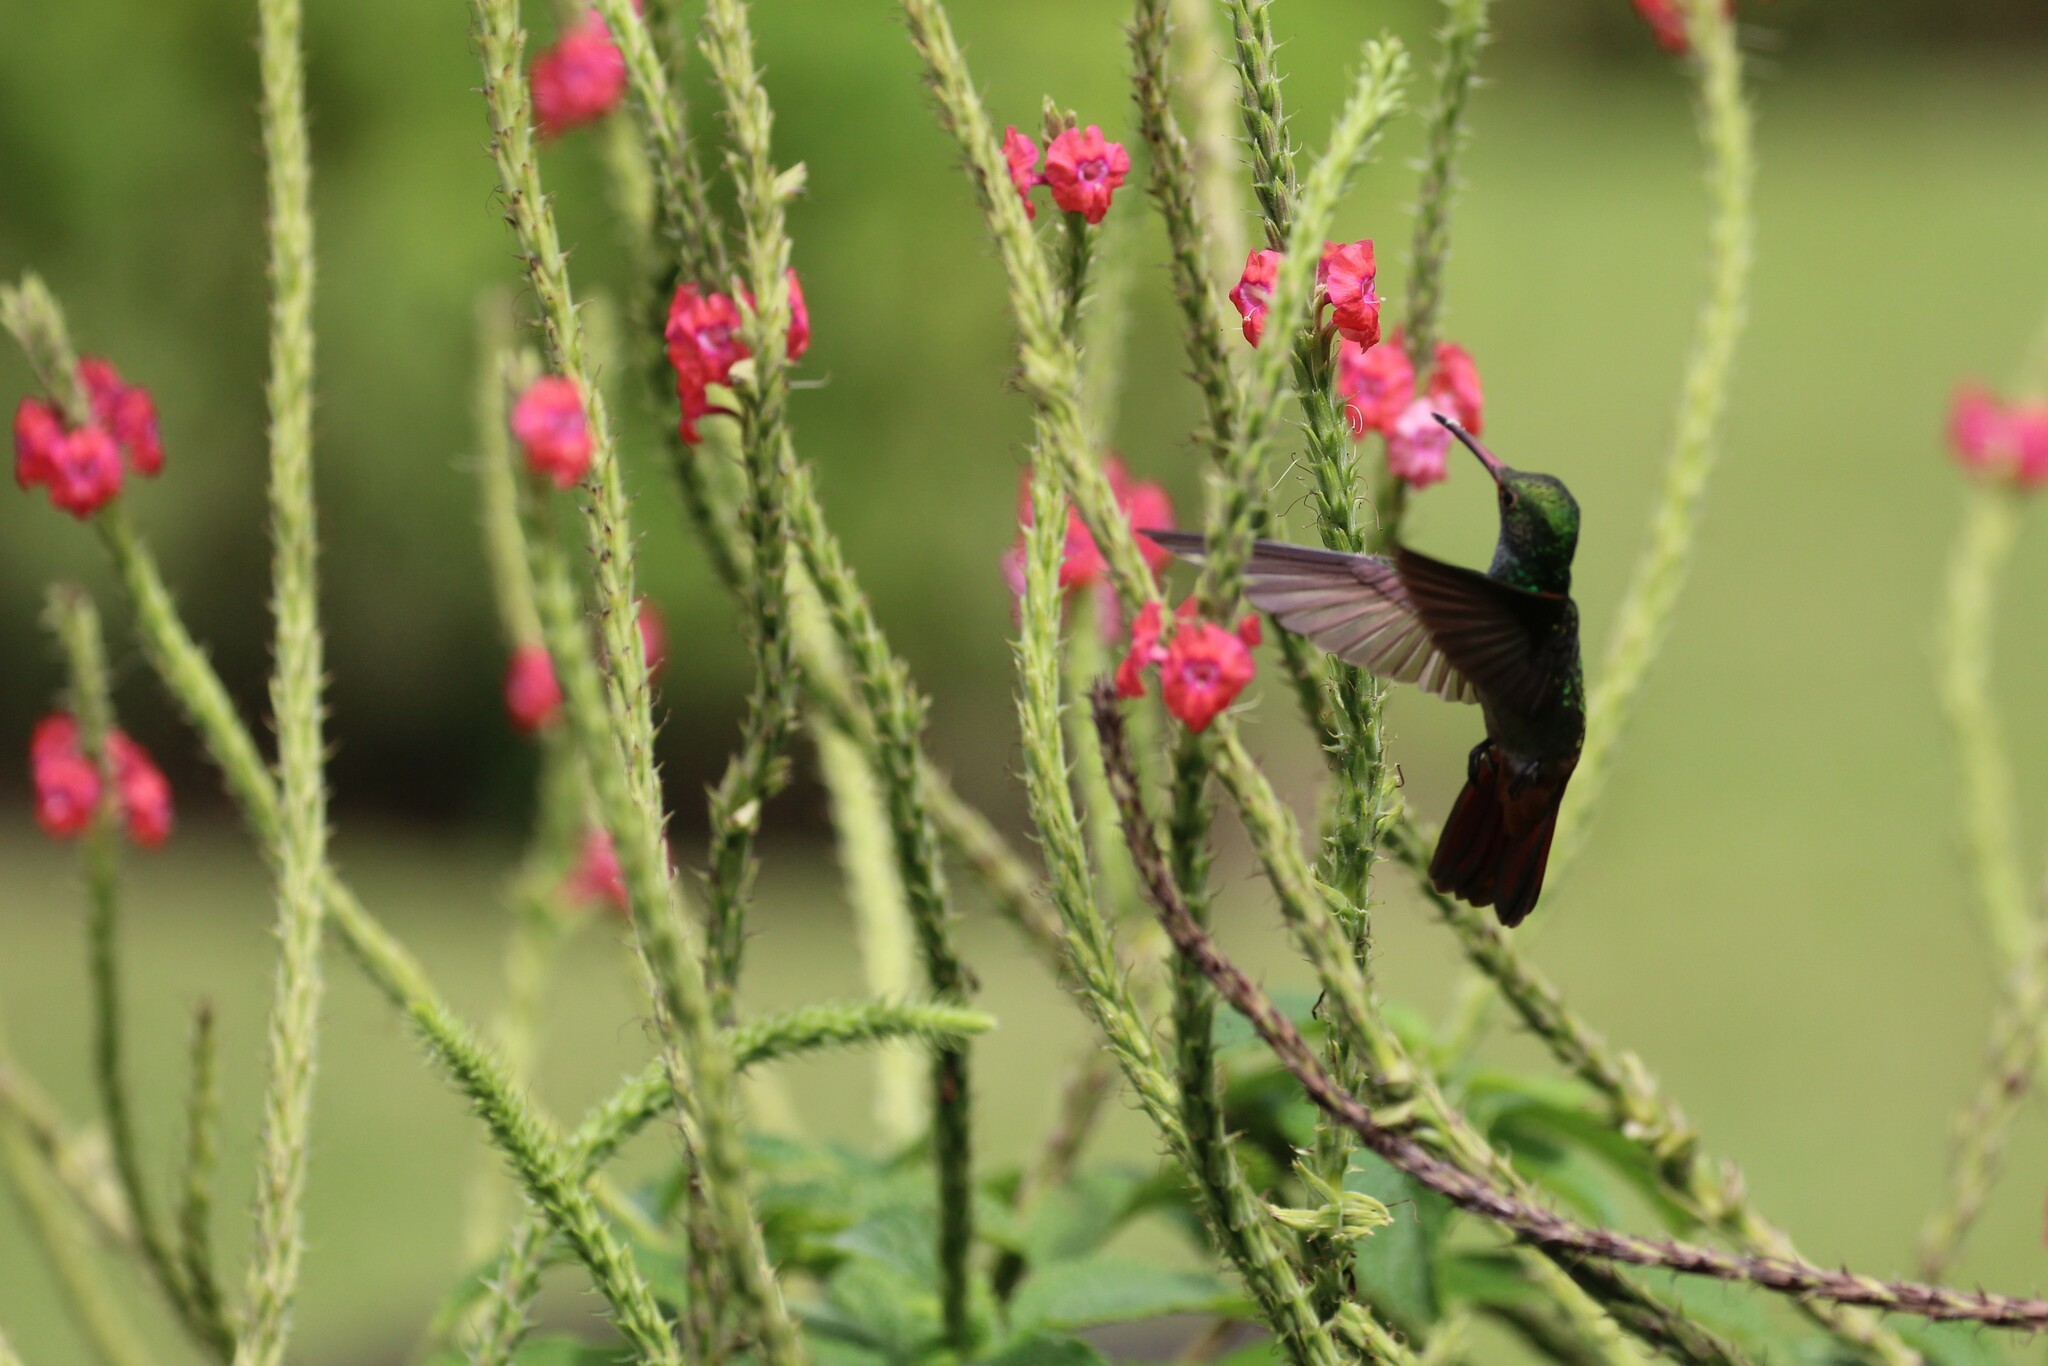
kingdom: Animalia
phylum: Chordata
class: Aves
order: Apodiformes
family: Trochilidae
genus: Amazilia
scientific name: Amazilia tzacatl
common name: Rufous-tailed hummingbird
